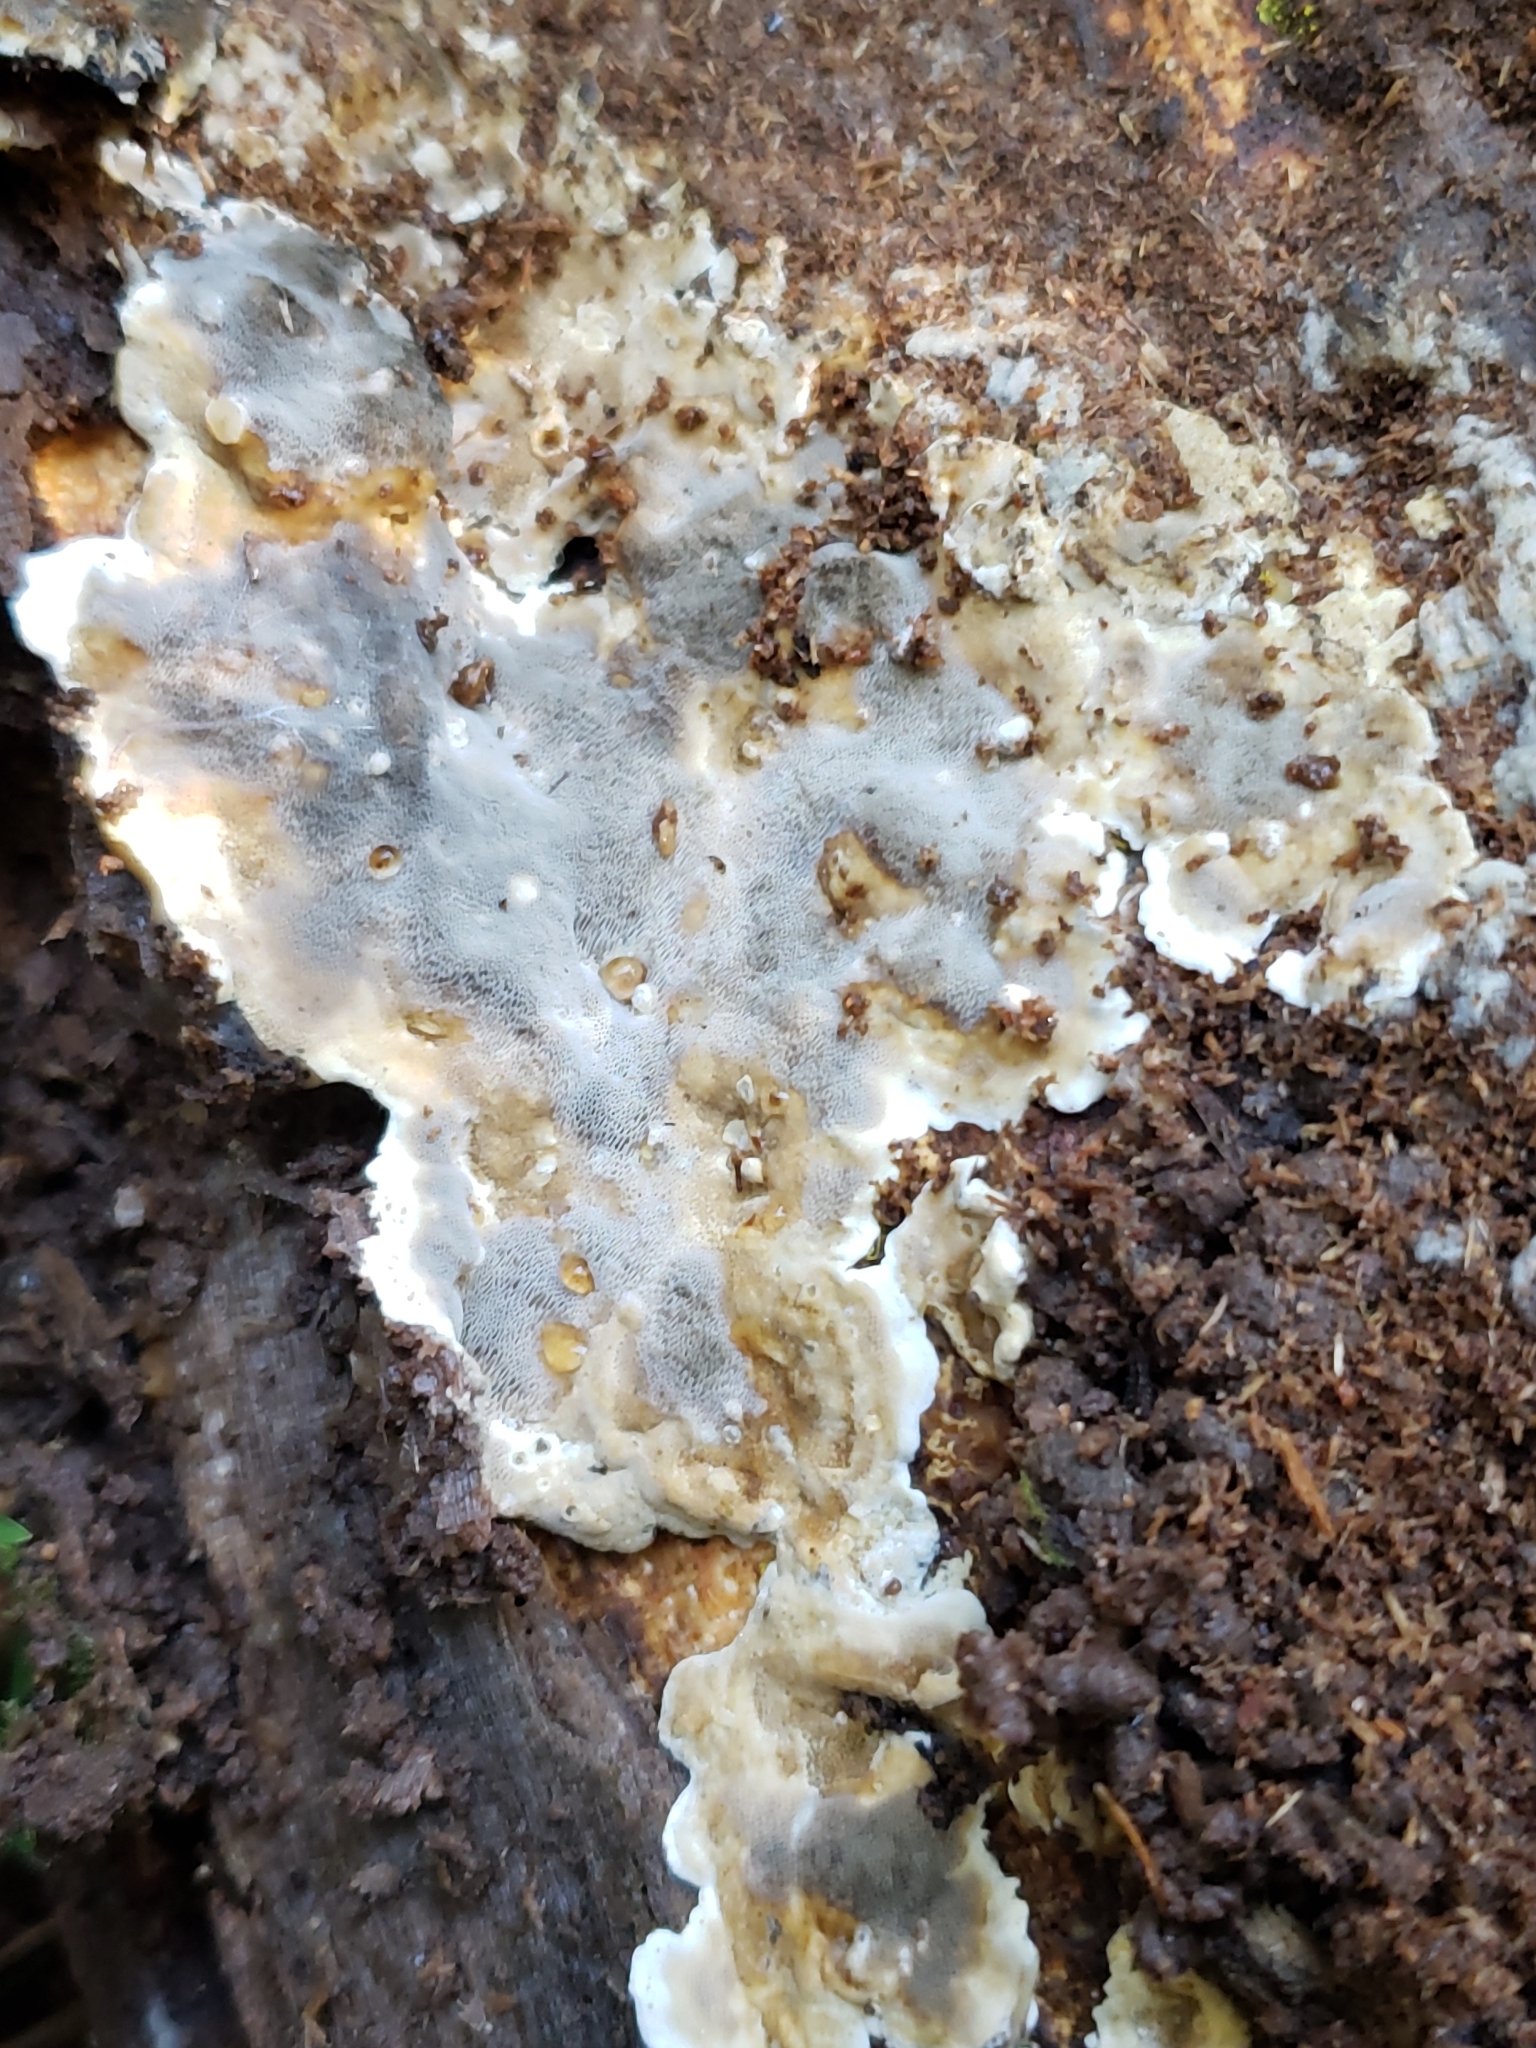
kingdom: Fungi
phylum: Basidiomycota
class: Agaricomycetes
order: Polyporales
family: Phanerochaetaceae
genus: Bjerkandera
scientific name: Bjerkandera adusta
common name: Smoky bracket
